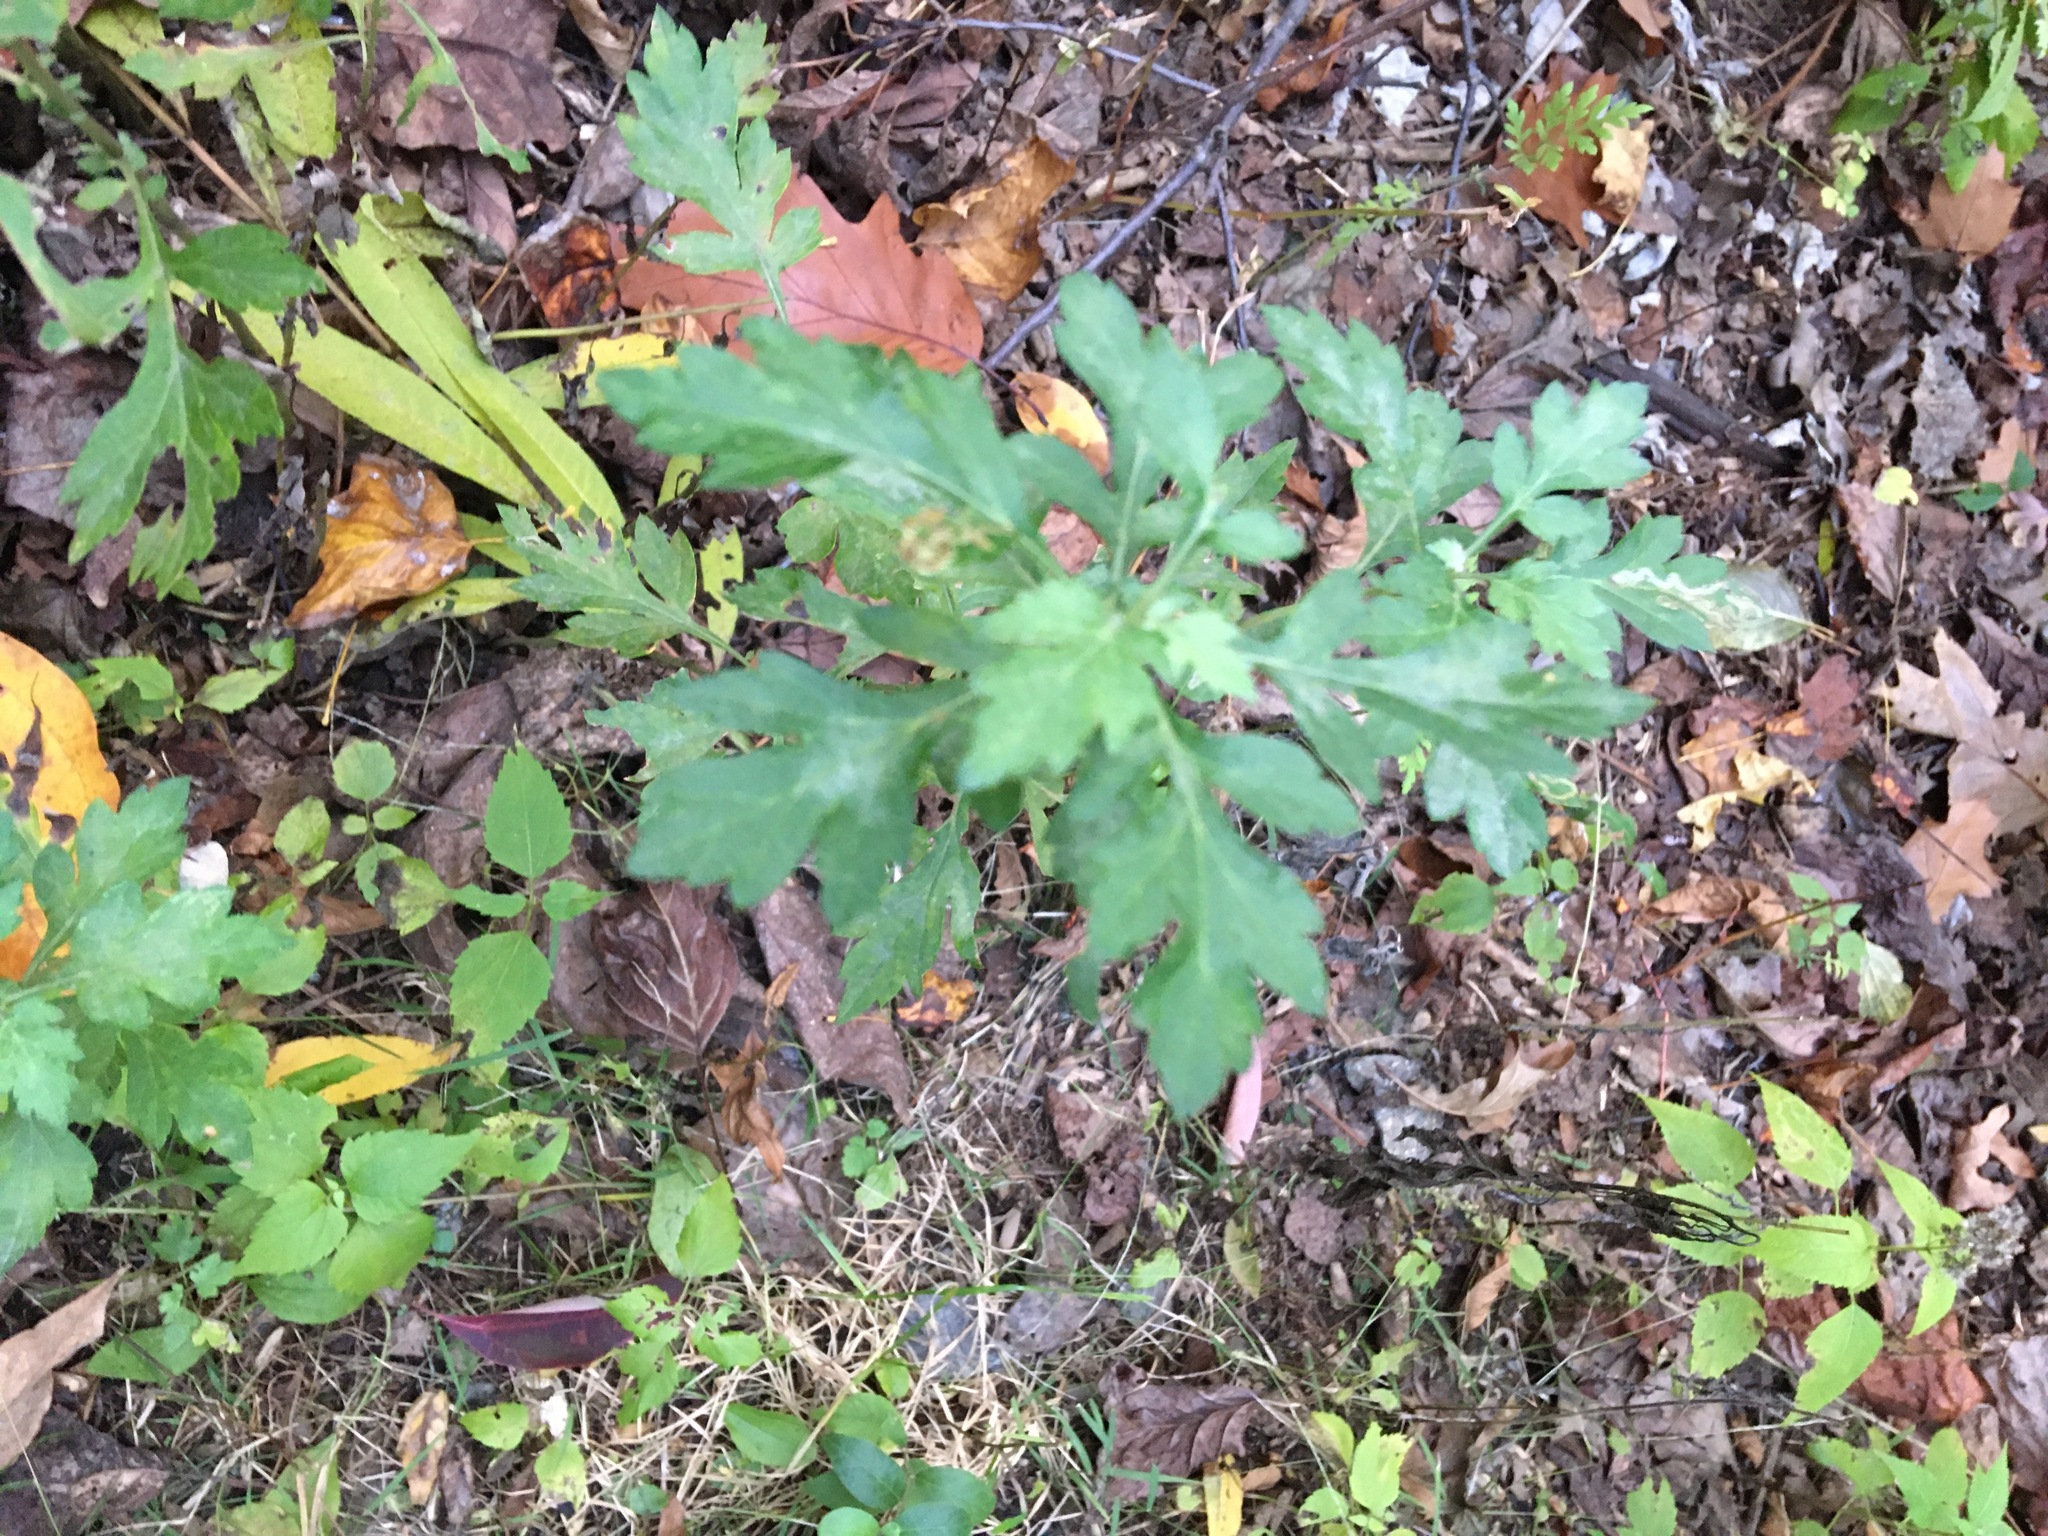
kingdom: Plantae
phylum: Tracheophyta
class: Magnoliopsida
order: Asterales
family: Asteraceae
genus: Artemisia
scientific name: Artemisia vulgaris
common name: Mugwort
